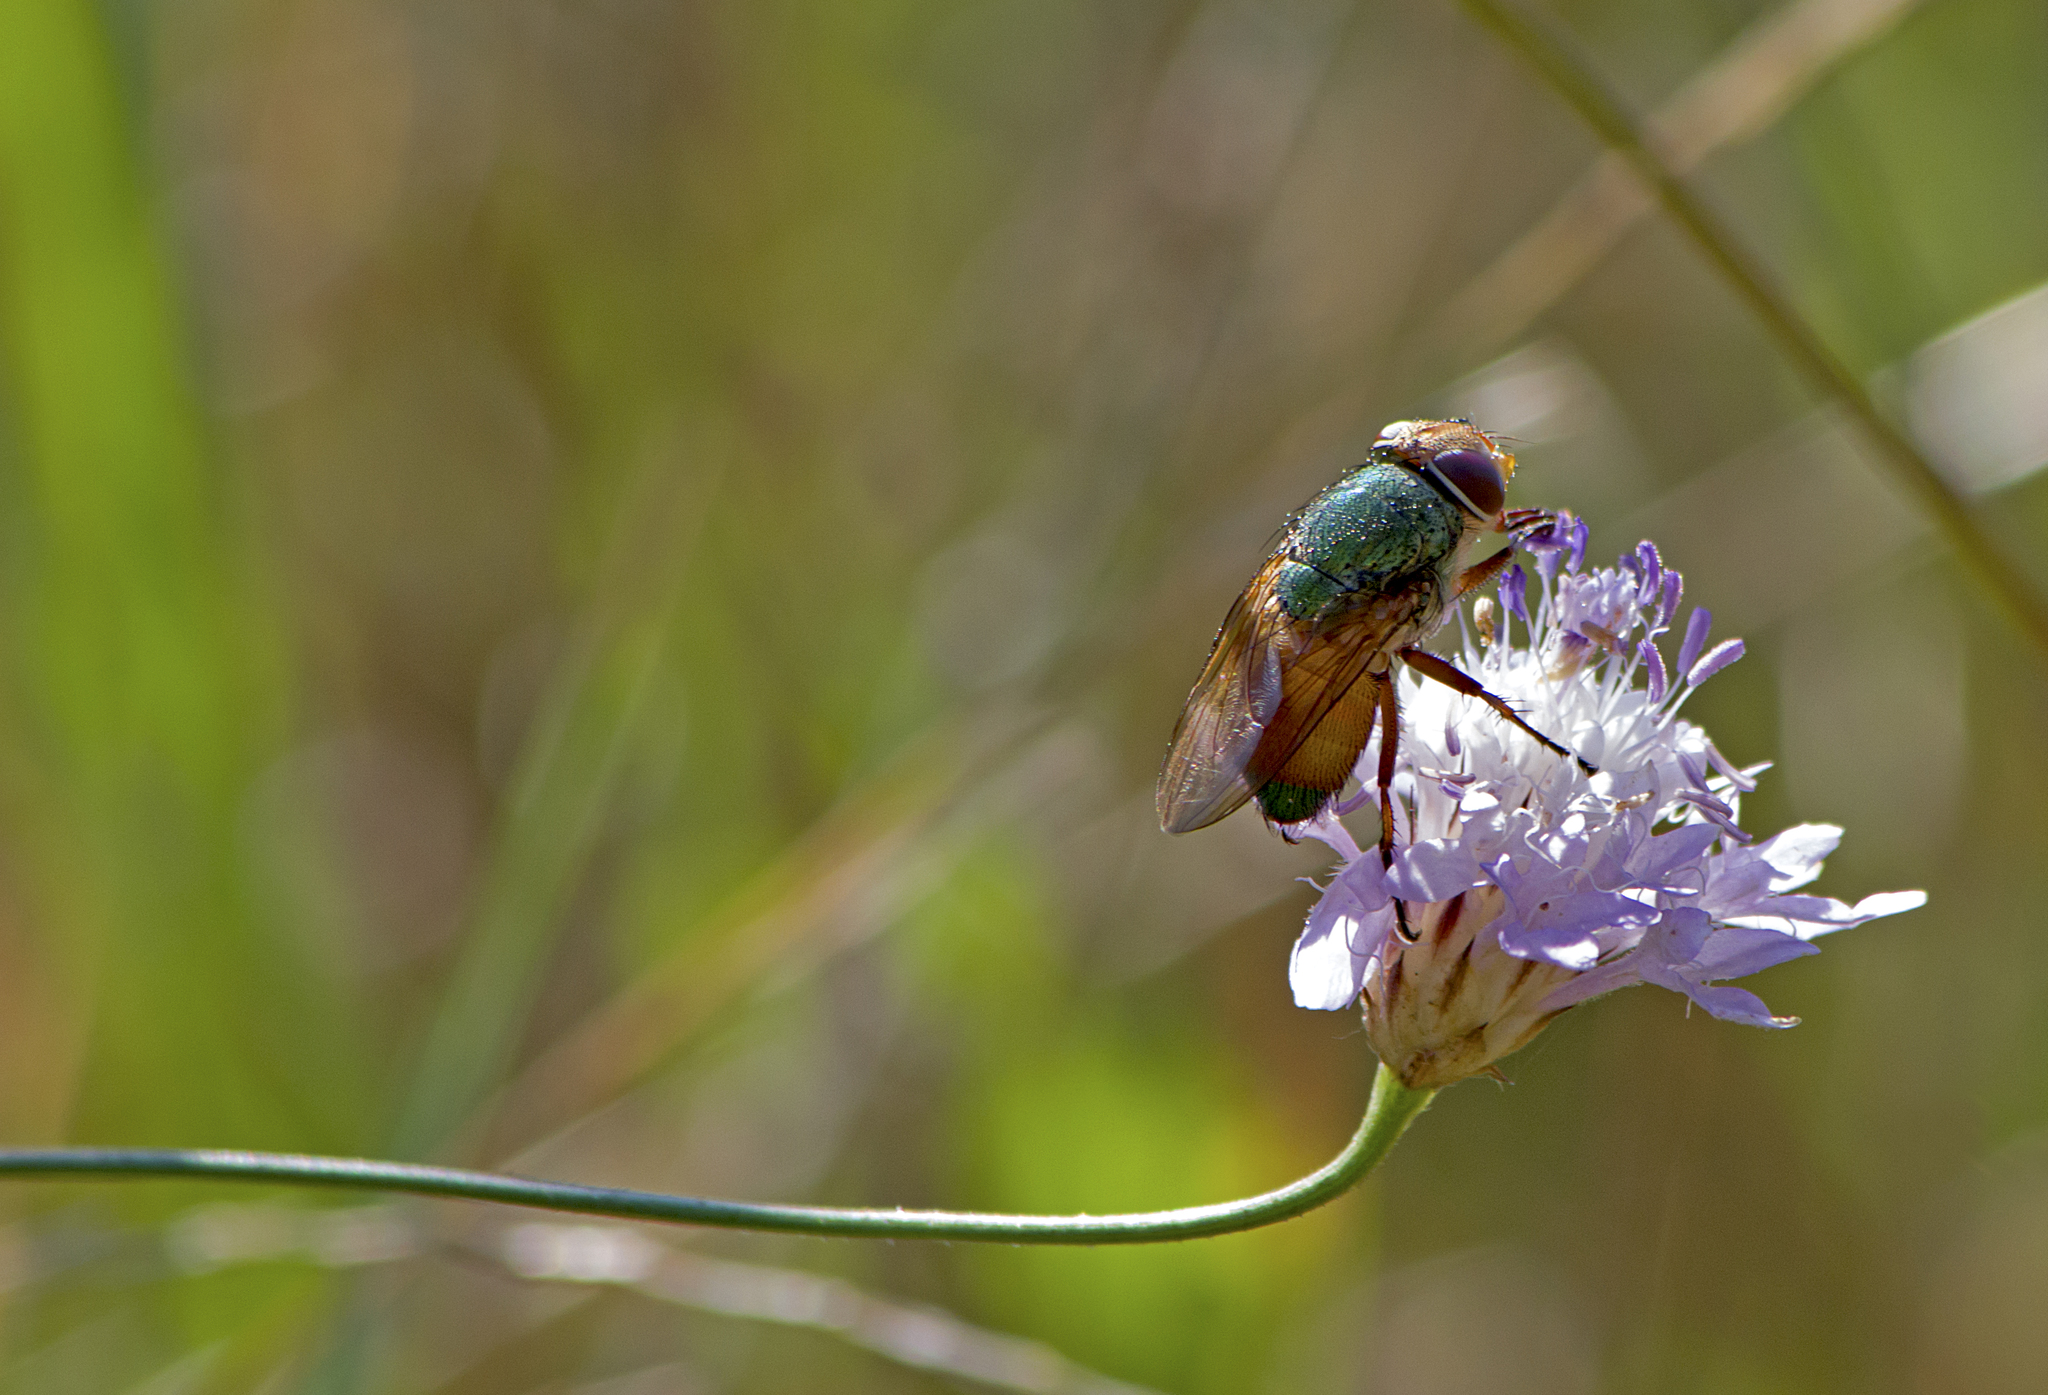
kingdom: Animalia
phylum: Arthropoda
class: Insecta
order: Diptera
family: Calliphoridae
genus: Rhyncomya
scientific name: Rhyncomya speciosa
